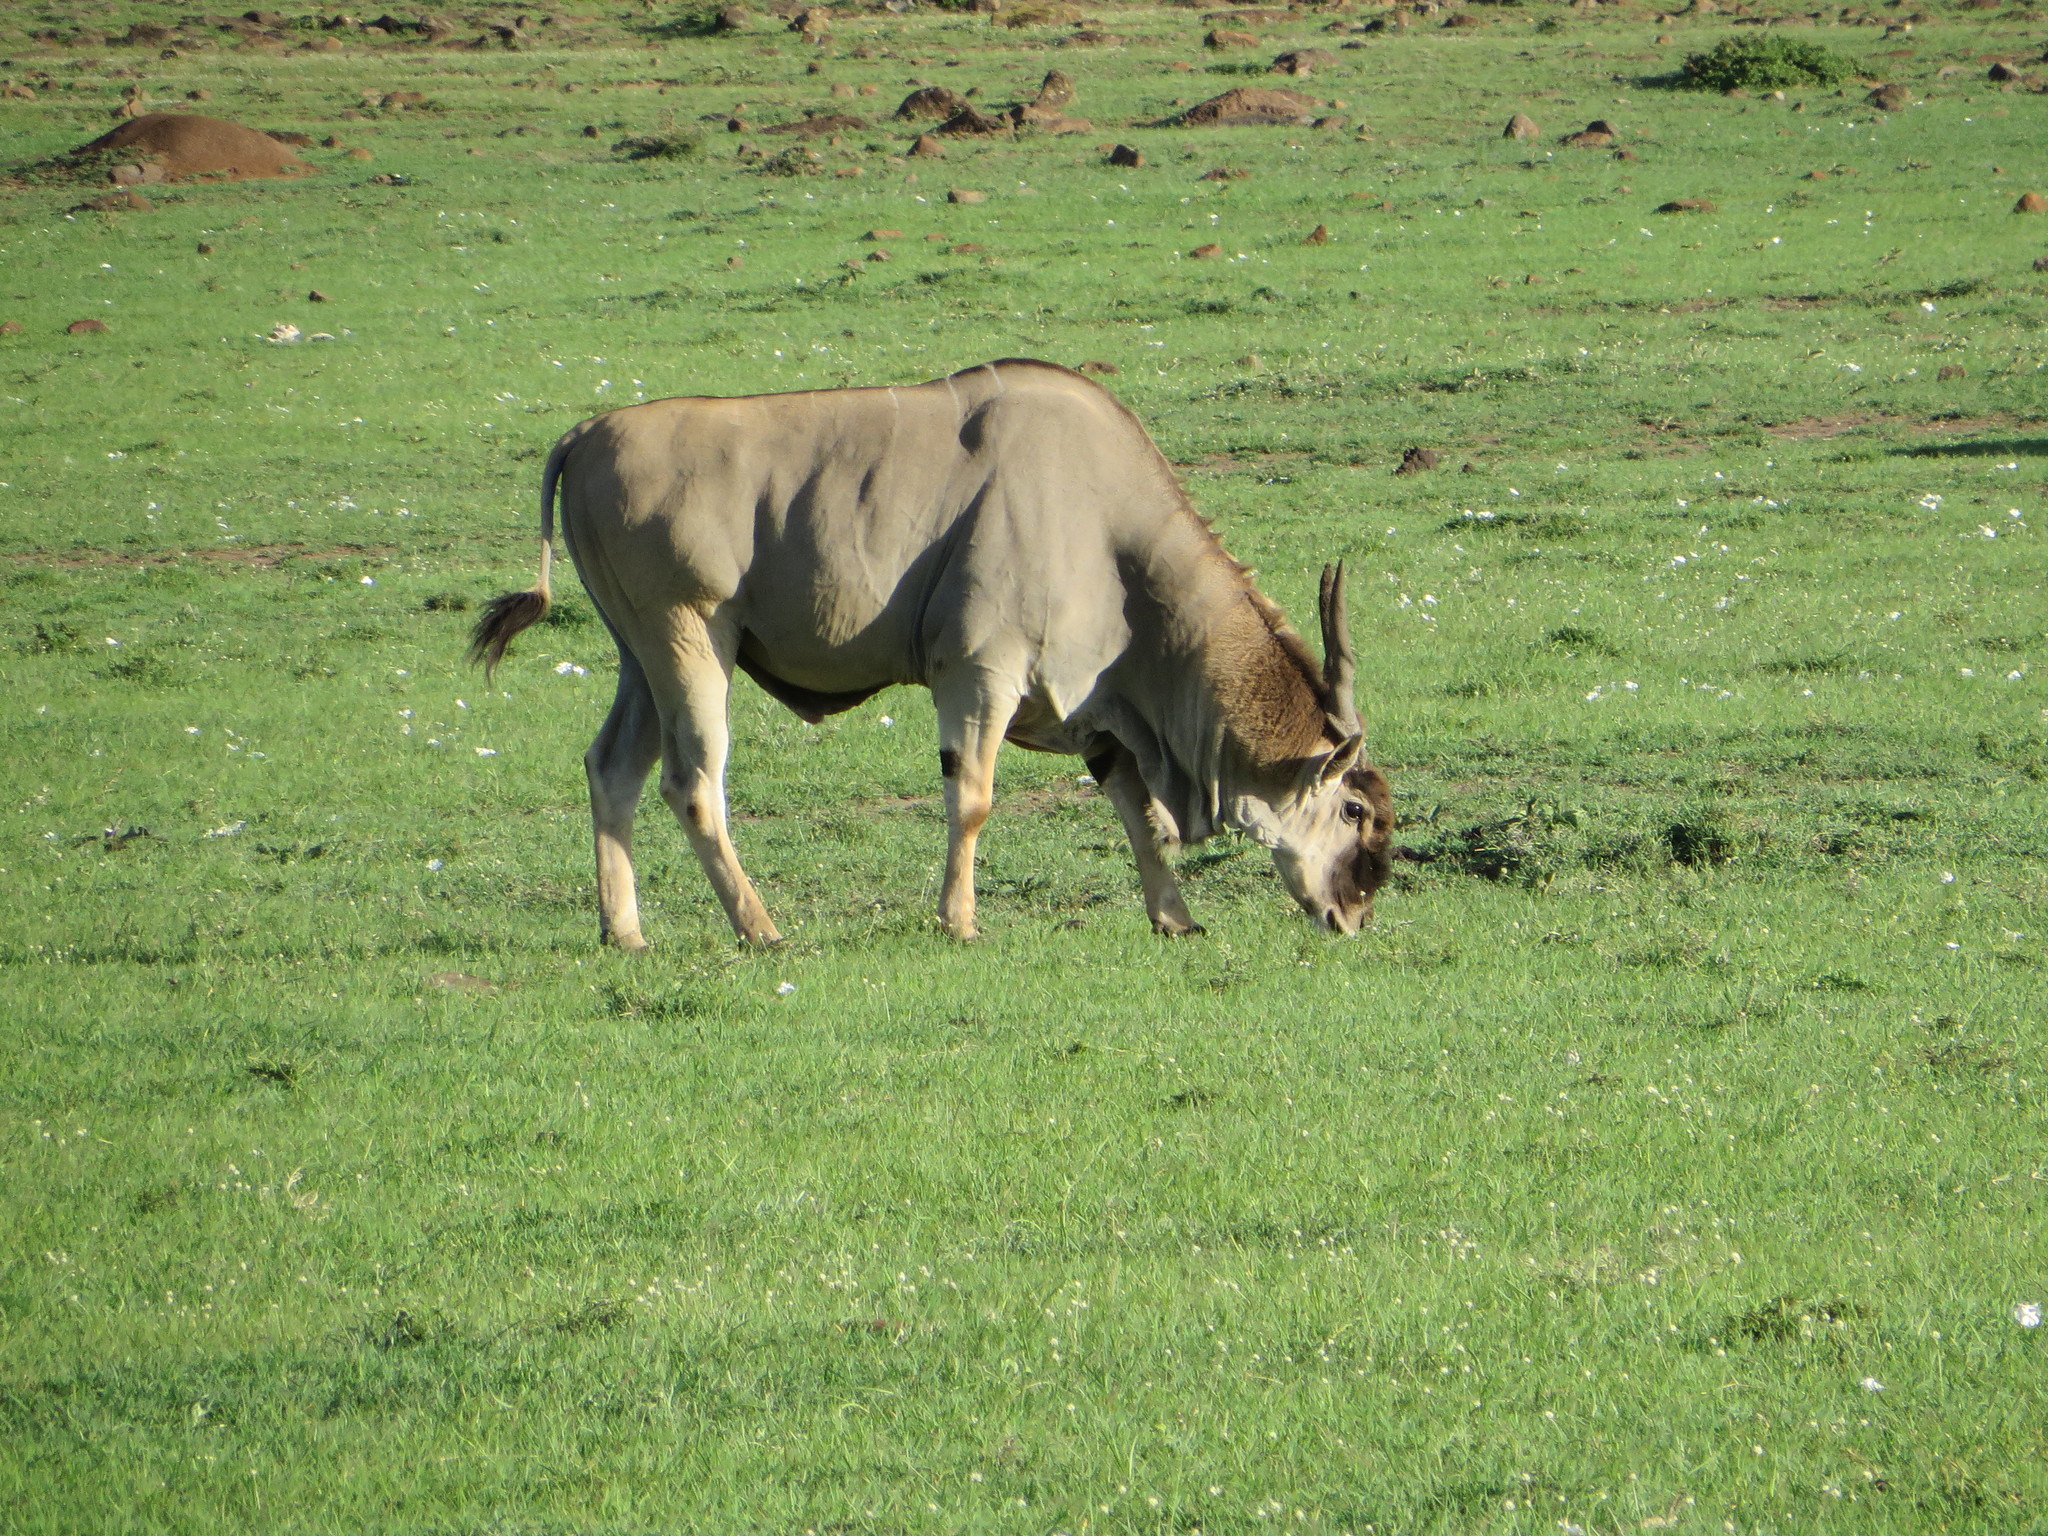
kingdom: Animalia
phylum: Chordata
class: Mammalia
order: Artiodactyla
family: Bovidae
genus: Taurotragus
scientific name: Taurotragus oryx
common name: Common eland
